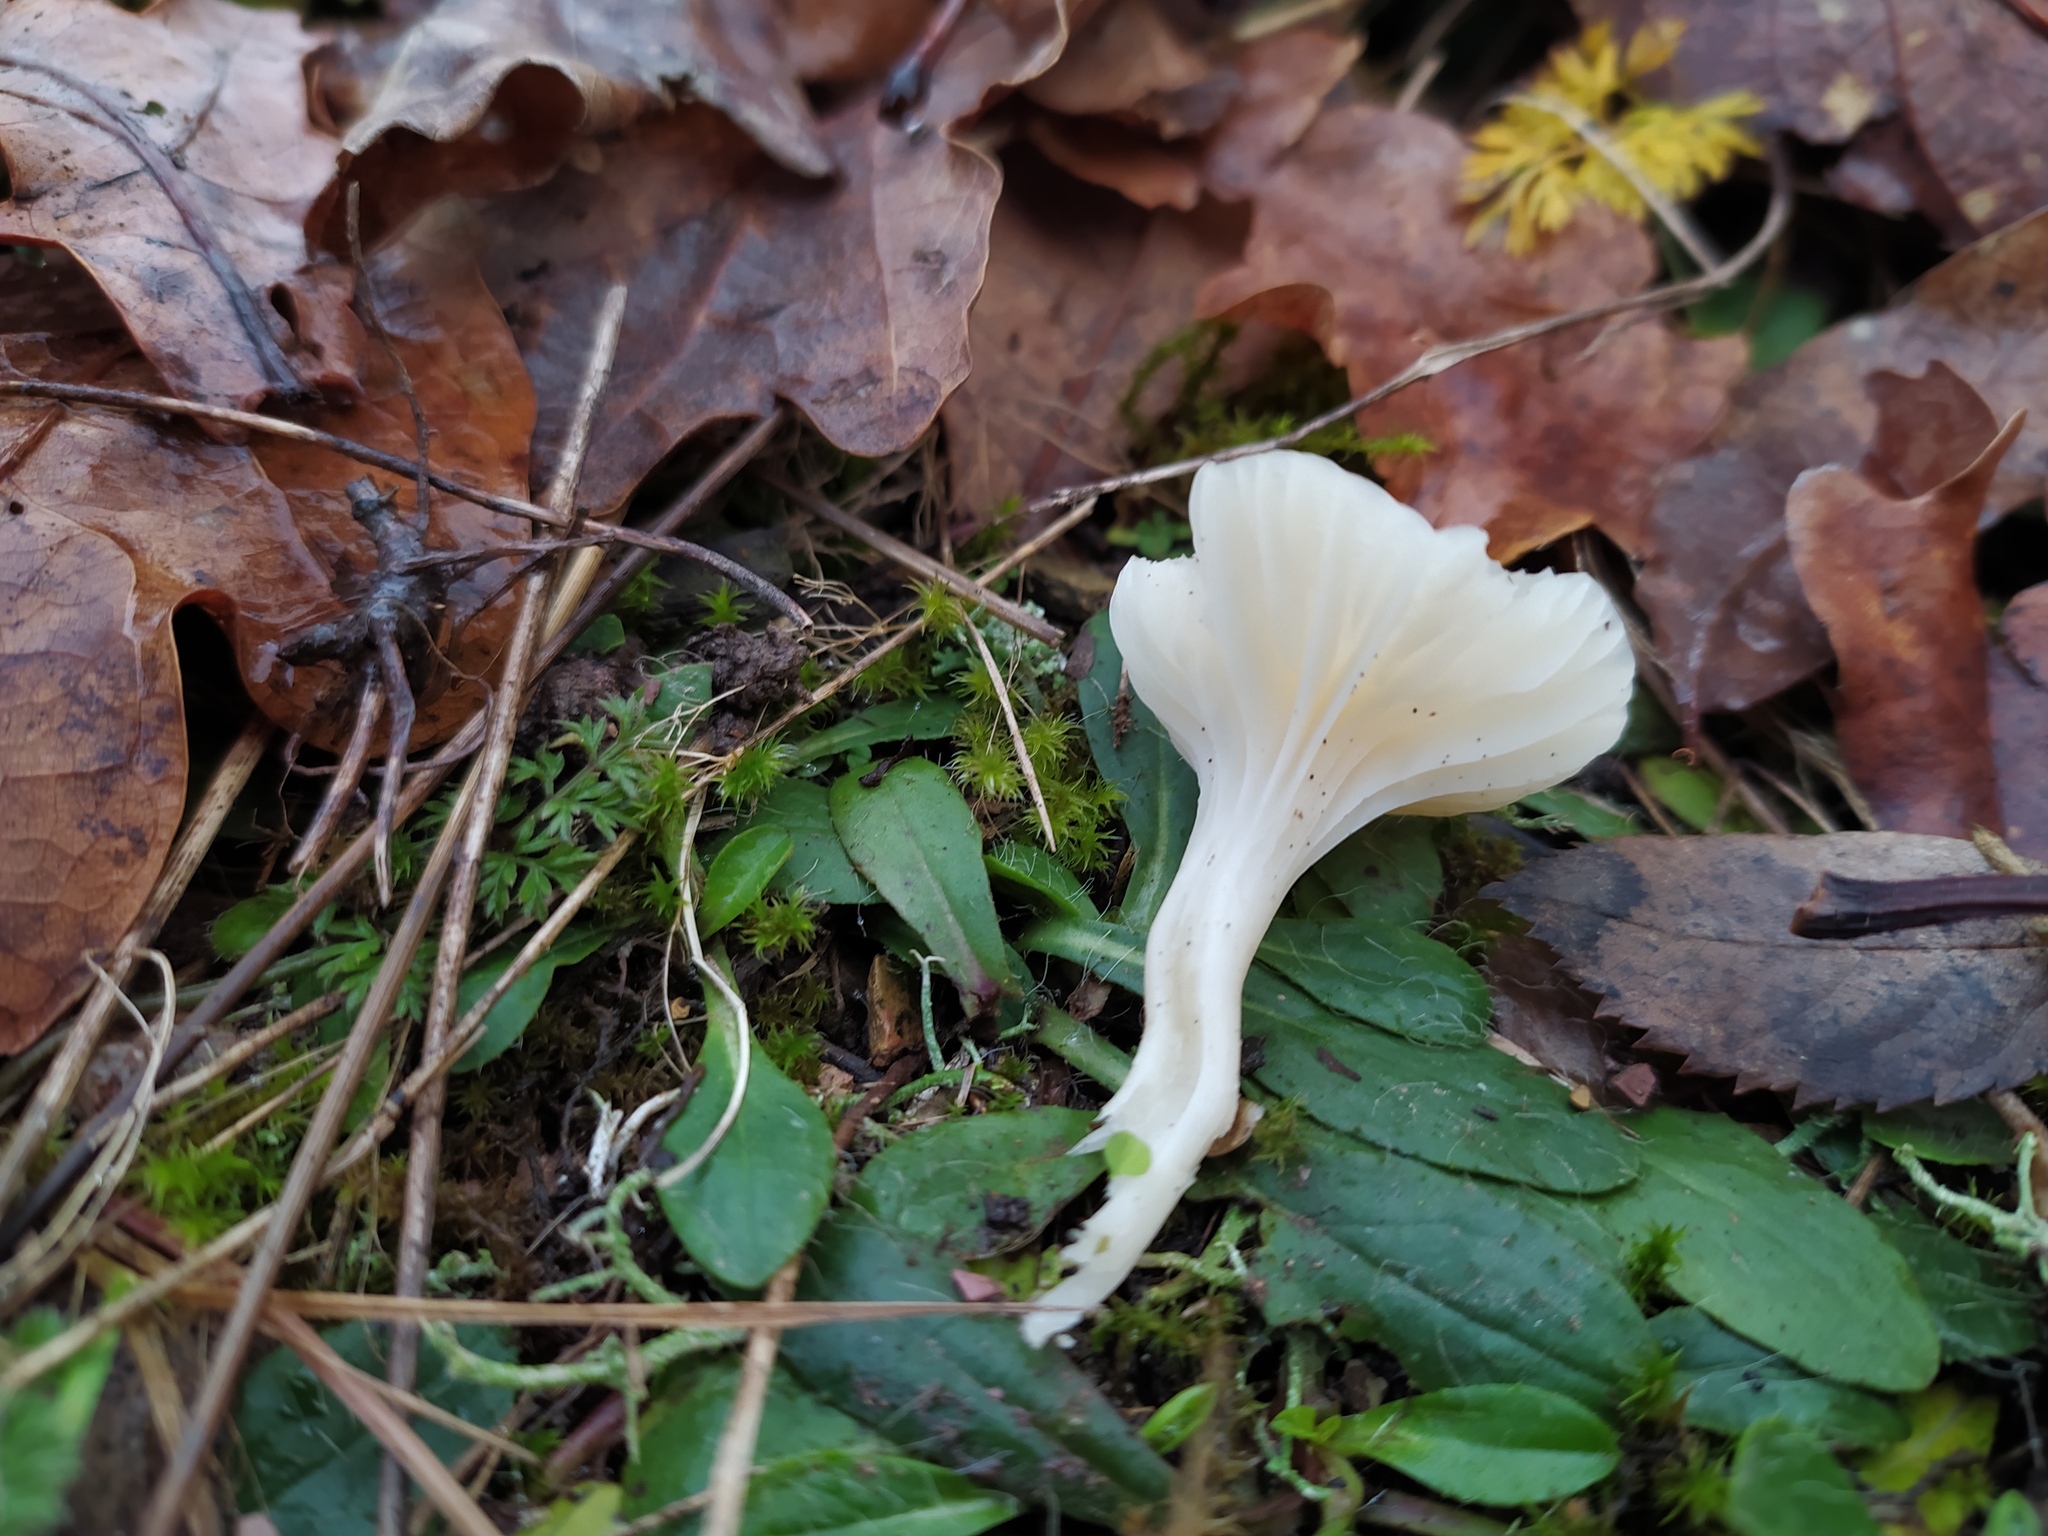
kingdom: Fungi
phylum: Basidiomycota
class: Agaricomycetes
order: Agaricales
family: Hygrophoraceae
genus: Cuphophyllus
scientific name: Cuphophyllus virgineus
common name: Snowy waxcap
